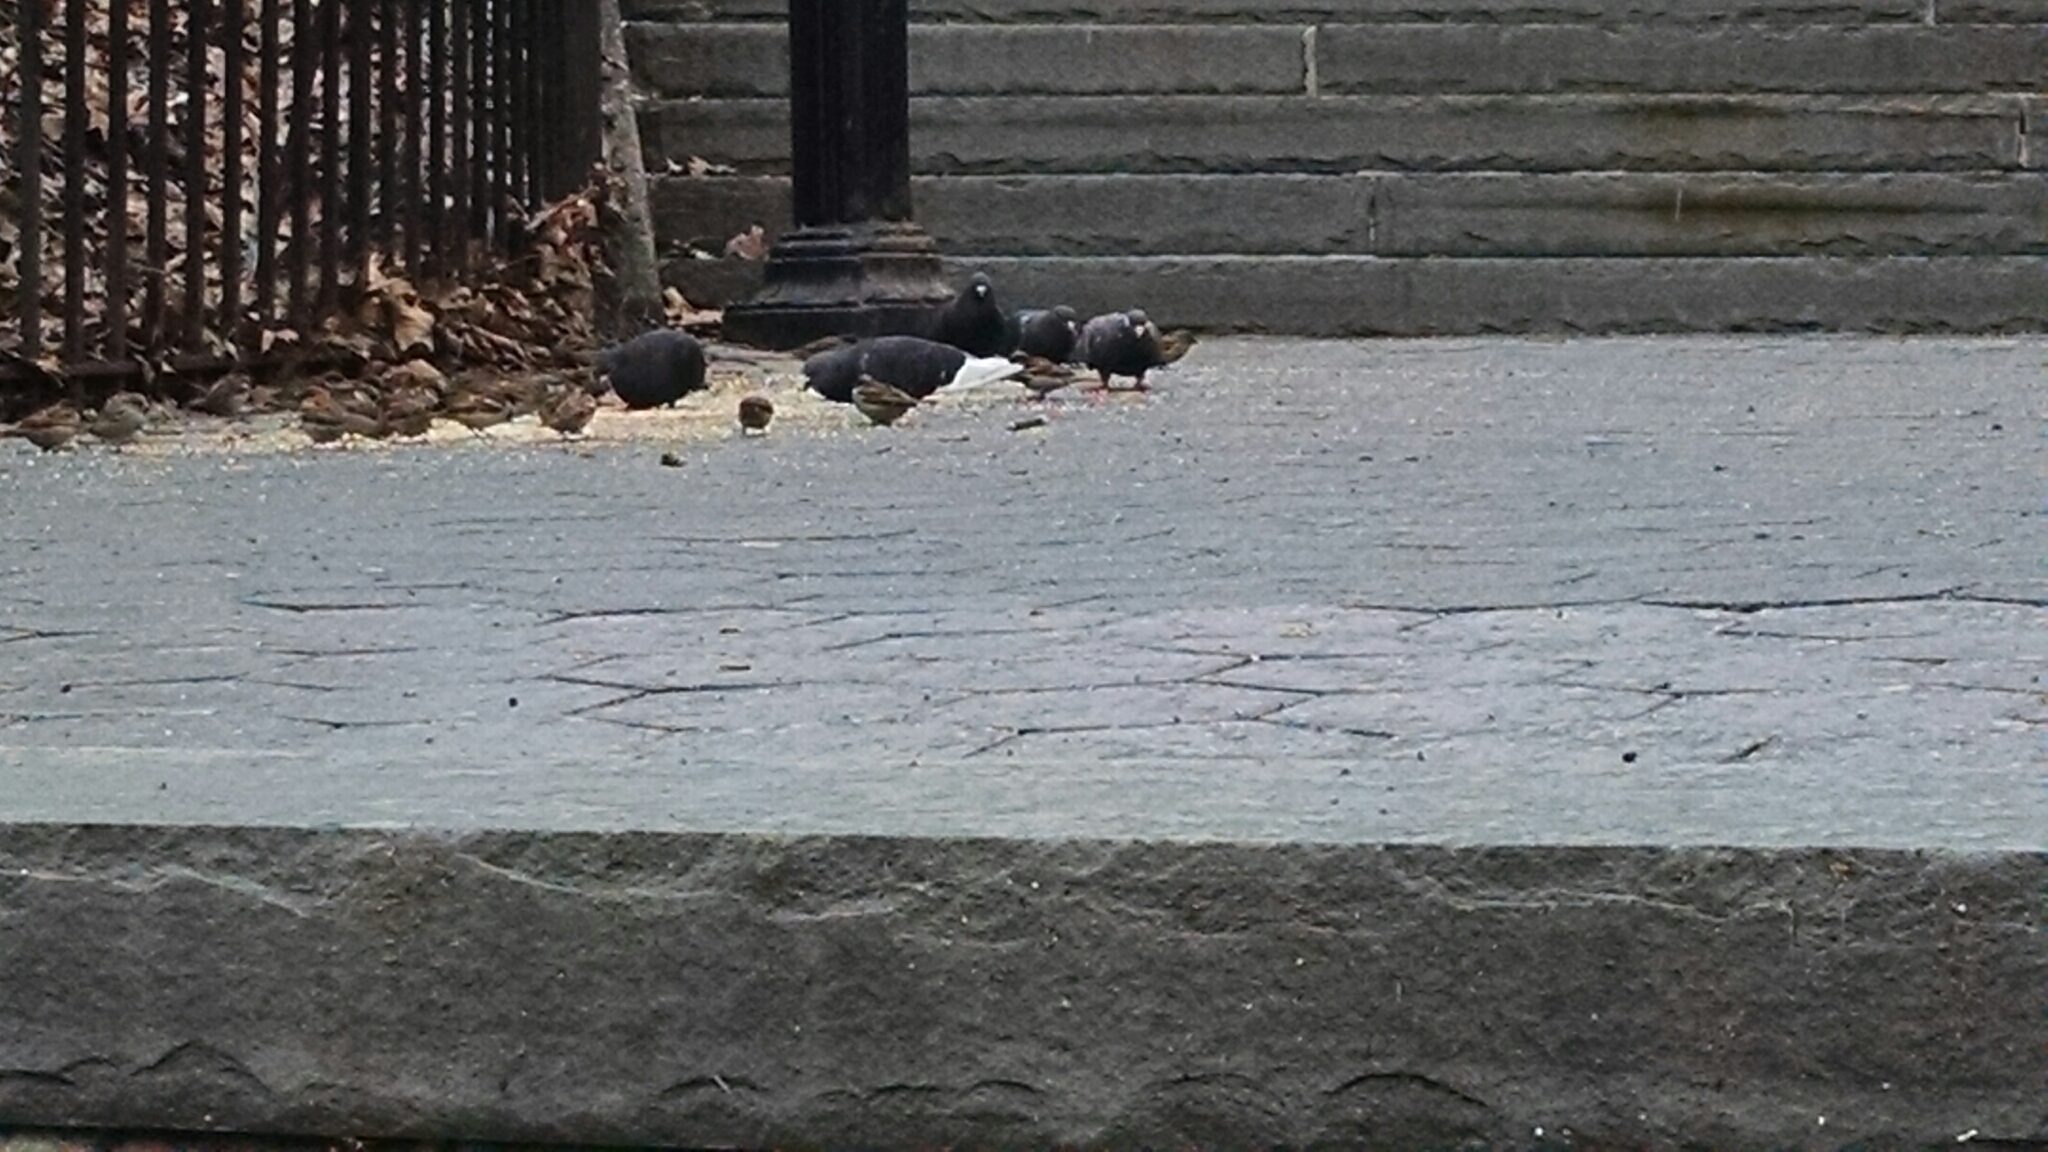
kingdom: Animalia
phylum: Chordata
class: Aves
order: Passeriformes
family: Passeridae
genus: Passer
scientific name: Passer domesticus
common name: House sparrow
